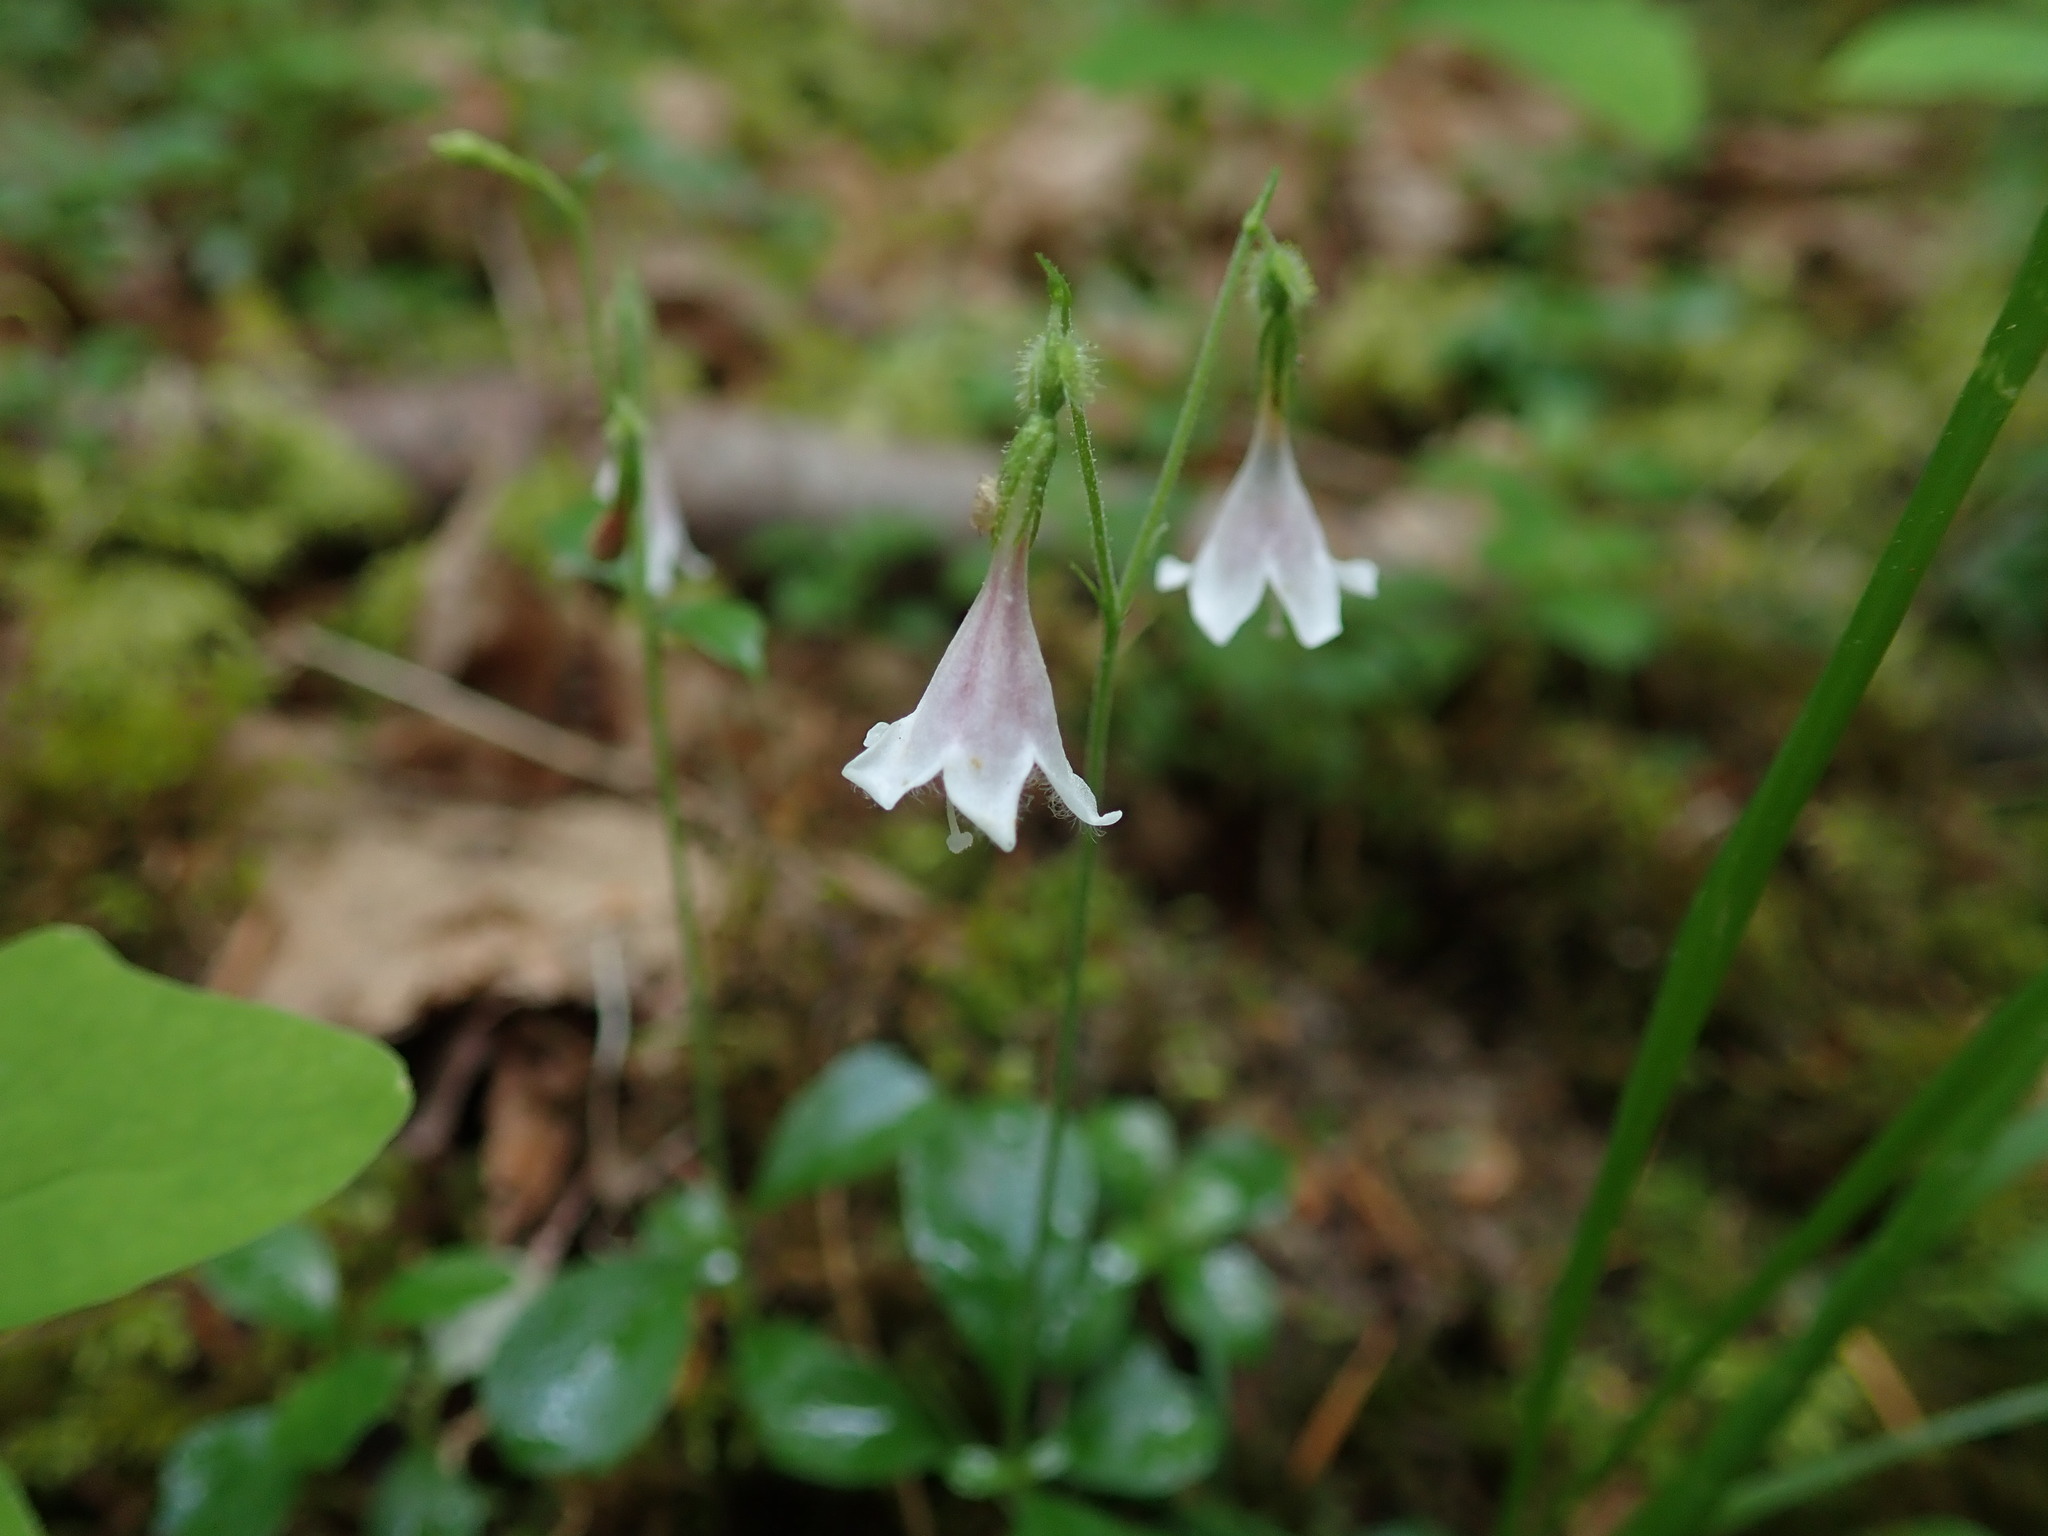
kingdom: Plantae
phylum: Tracheophyta
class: Magnoliopsida
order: Dipsacales
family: Caprifoliaceae
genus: Linnaea
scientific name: Linnaea borealis
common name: Twinflower
